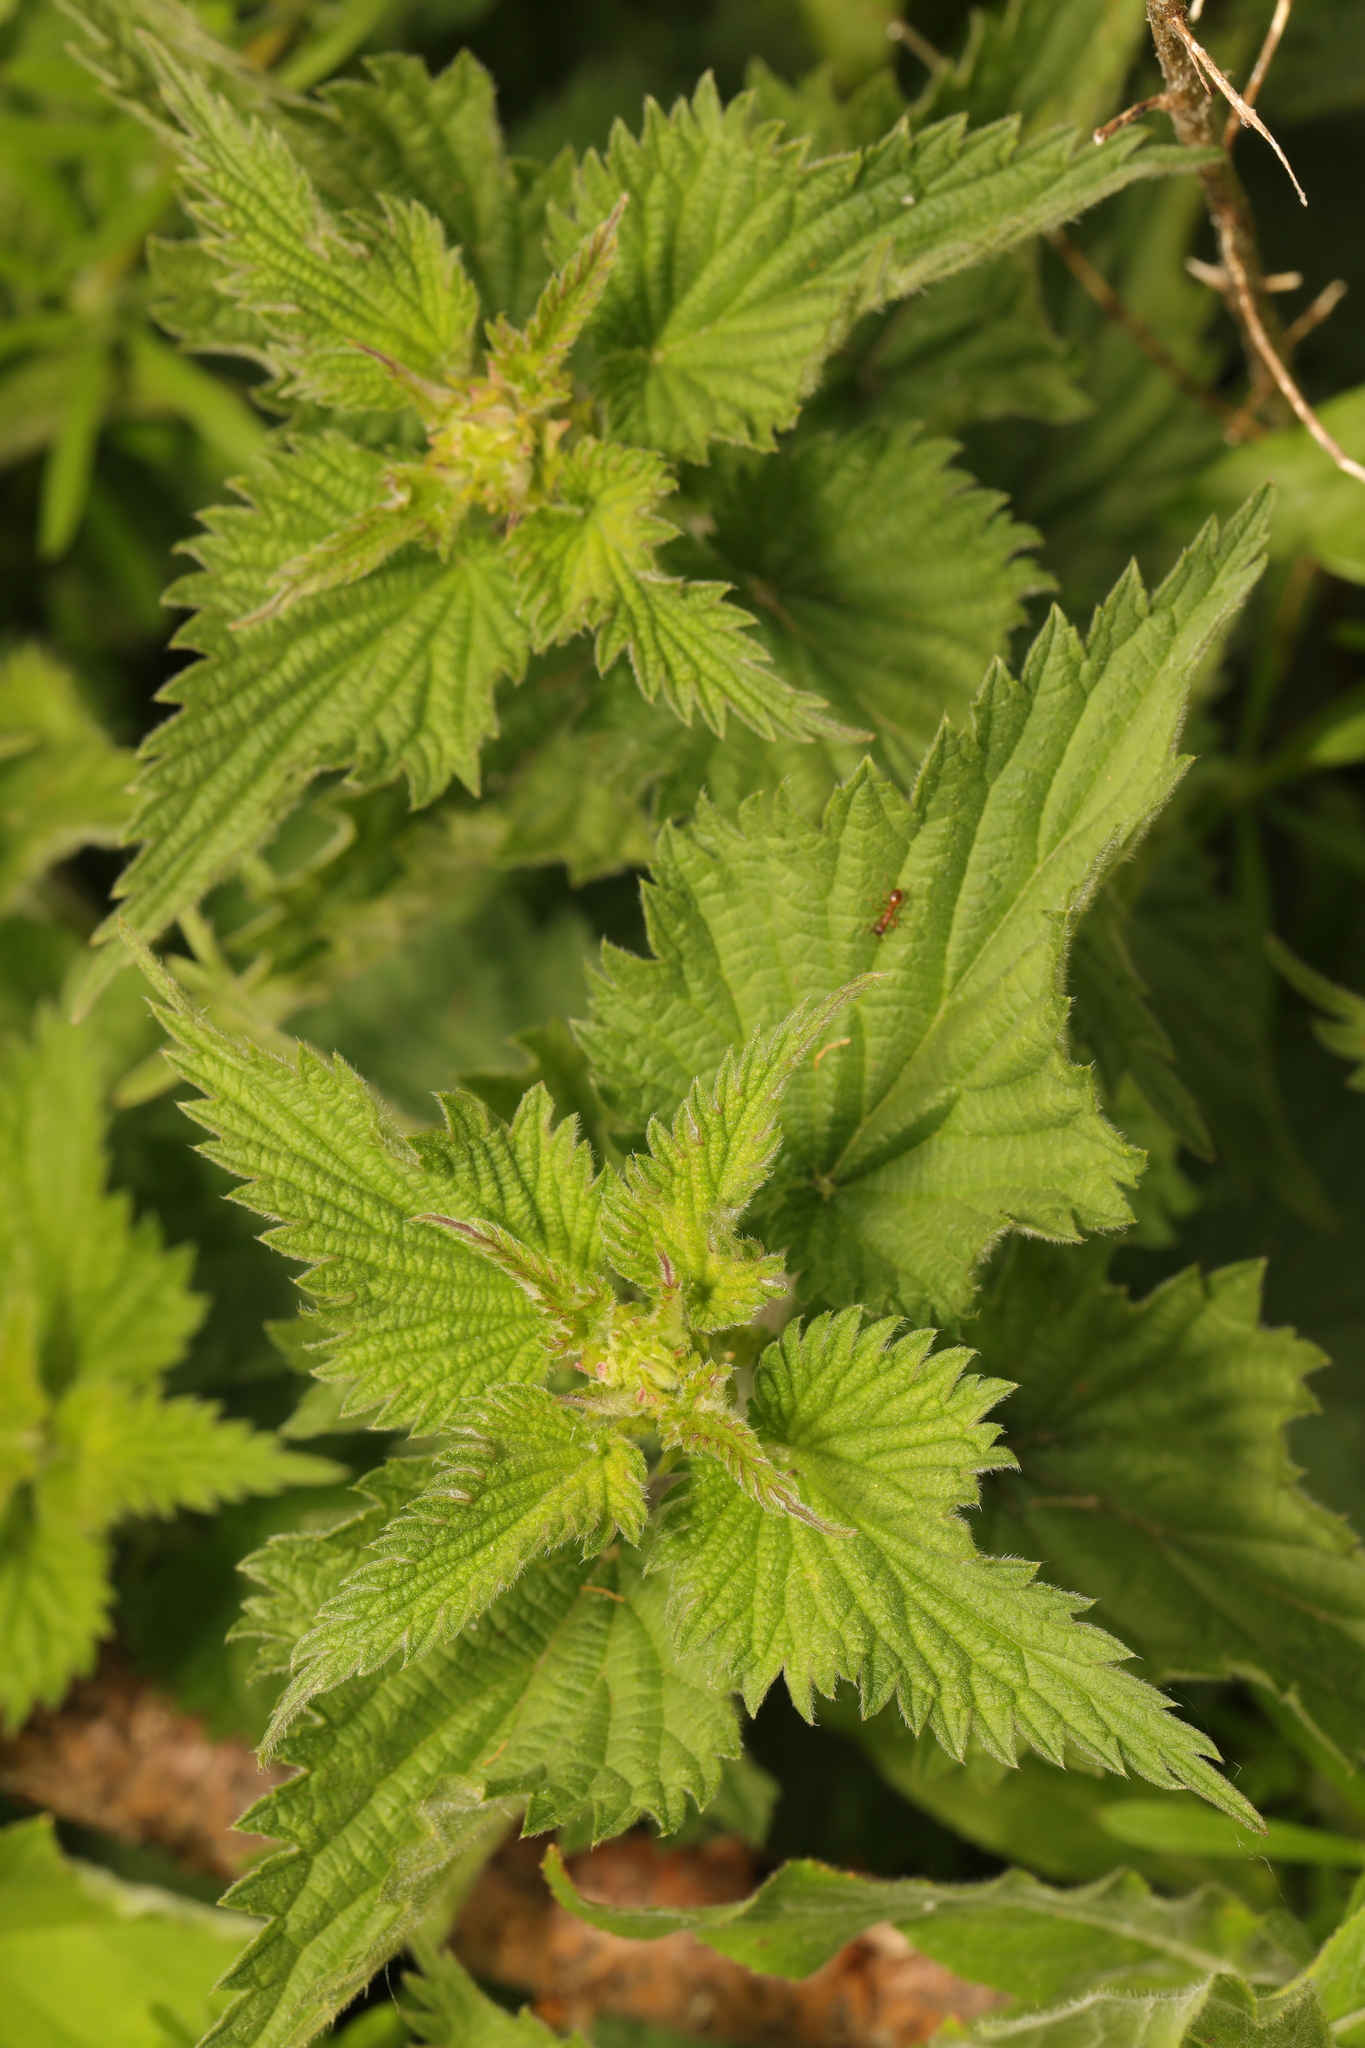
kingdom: Plantae
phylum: Tracheophyta
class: Magnoliopsida
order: Rosales
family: Urticaceae
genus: Urtica
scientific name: Urtica dioica
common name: Common nettle
